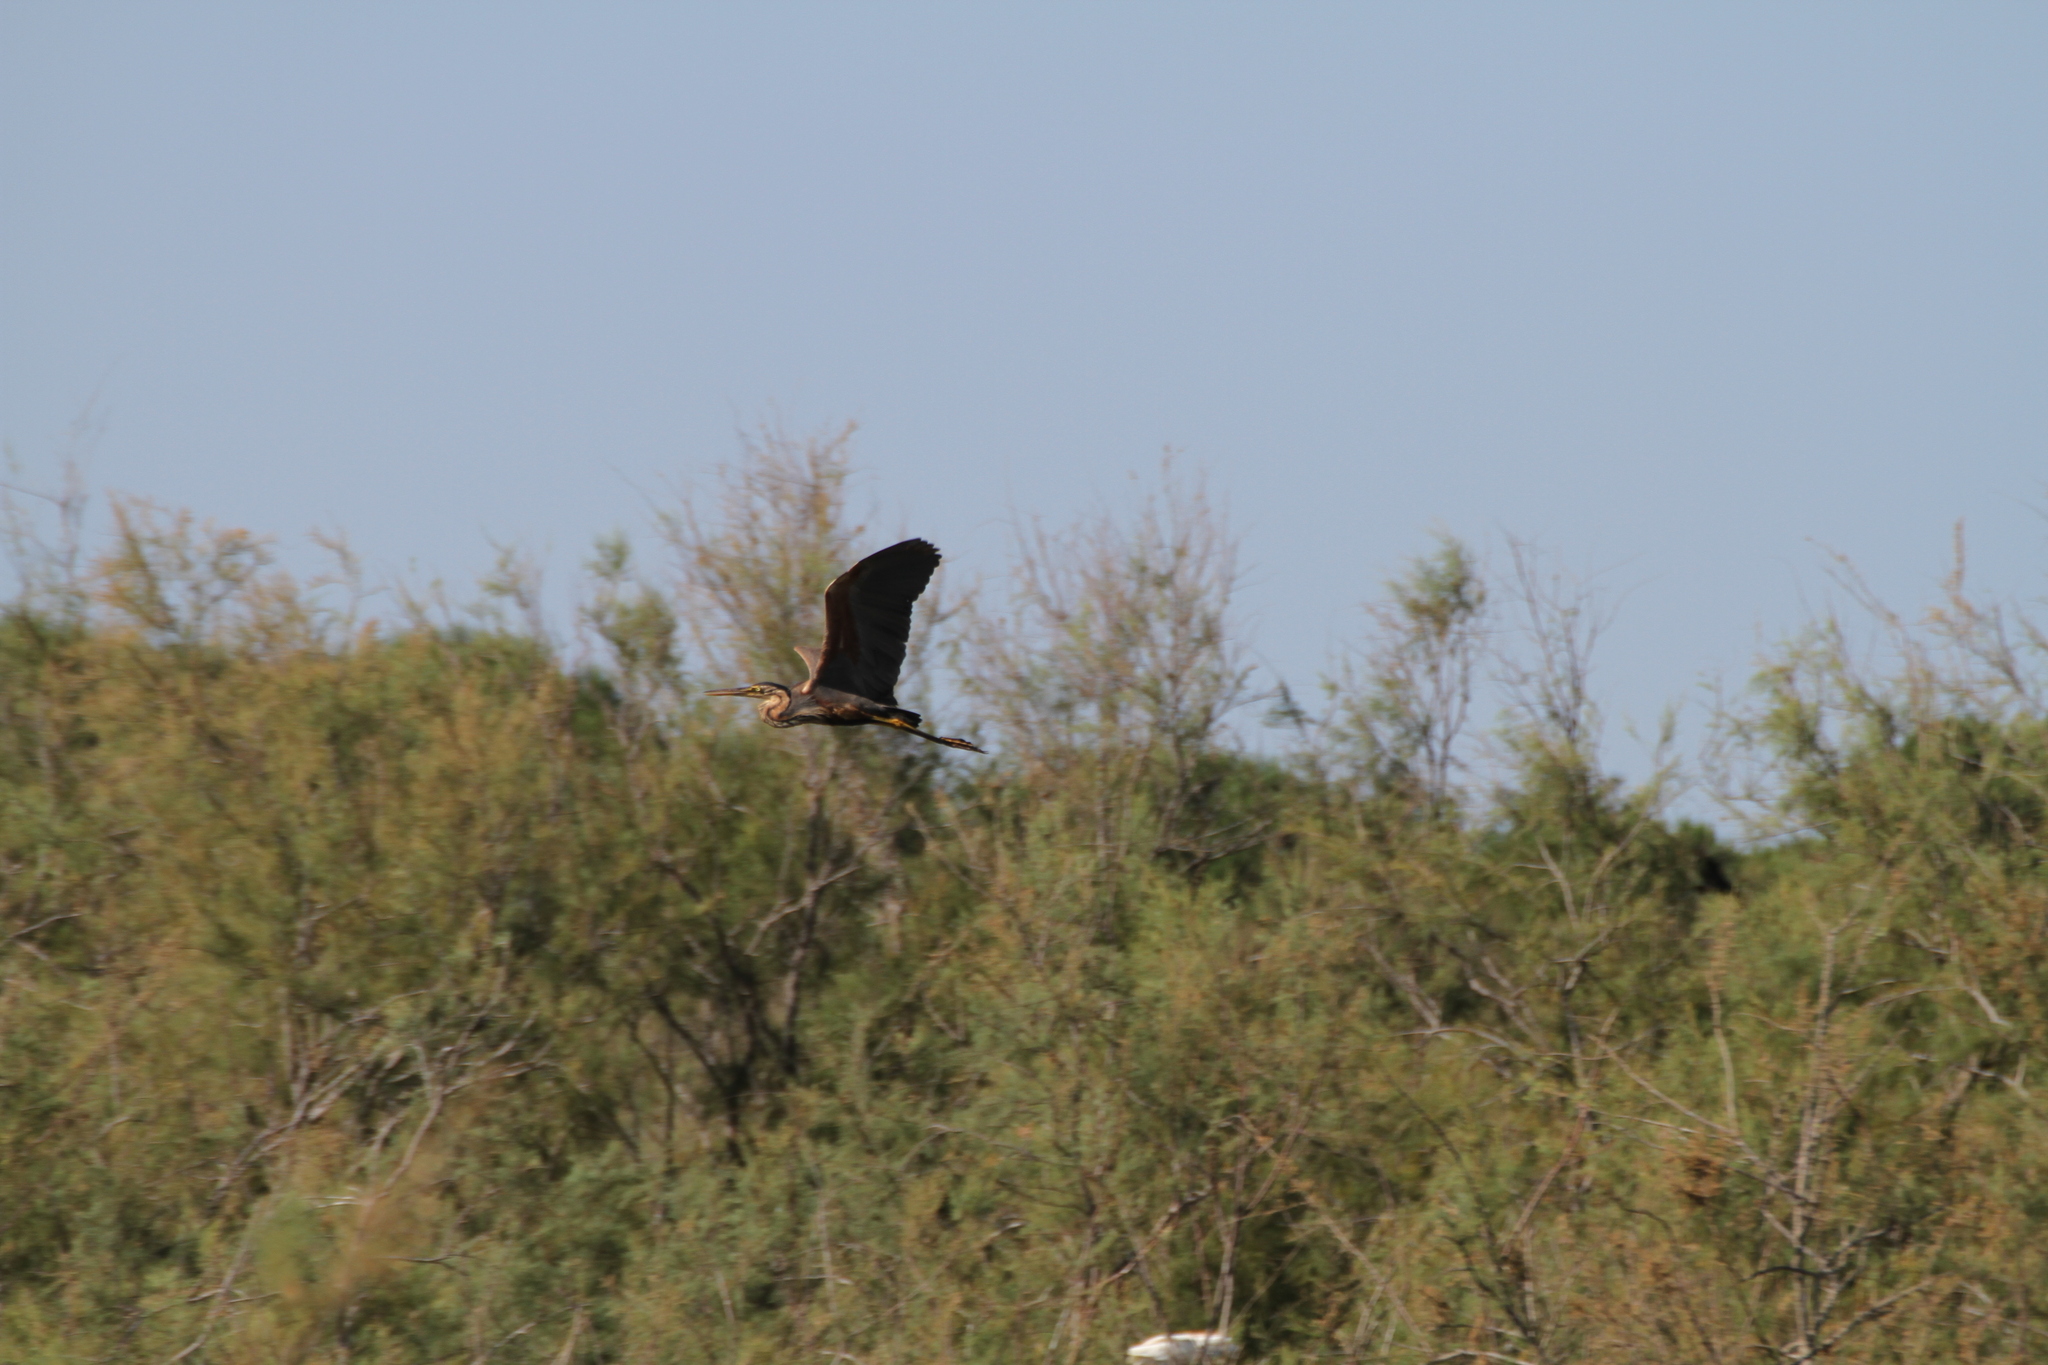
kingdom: Animalia
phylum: Chordata
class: Aves
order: Pelecaniformes
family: Ardeidae
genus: Ardea
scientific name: Ardea purpurea
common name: Purple heron
